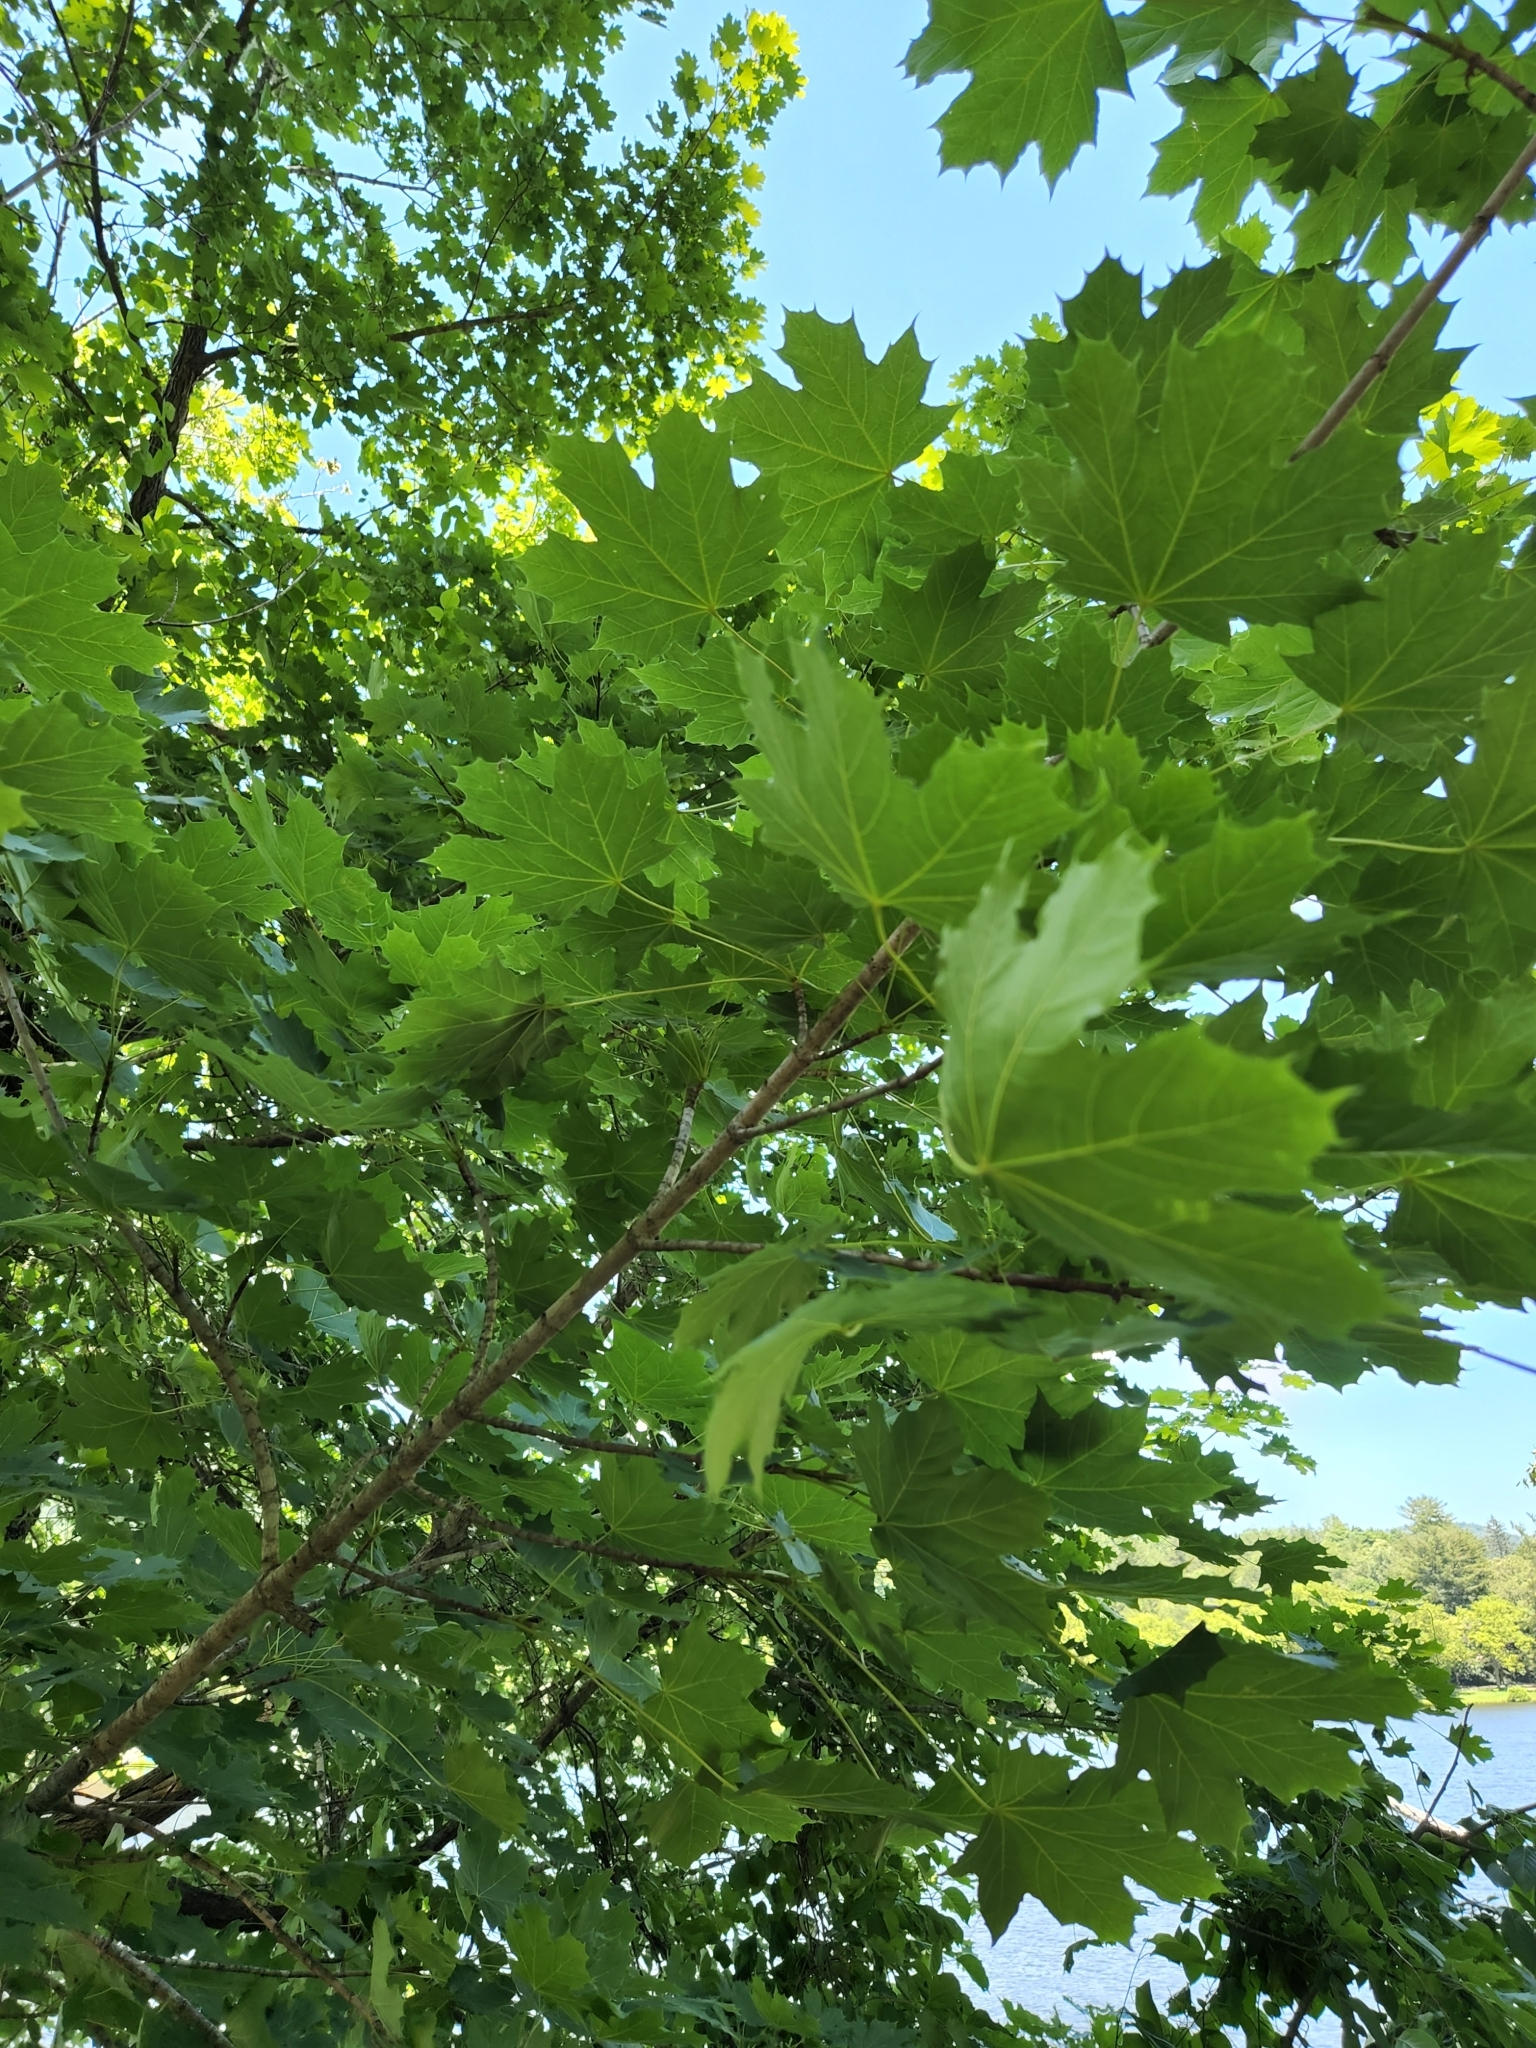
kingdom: Plantae
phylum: Tracheophyta
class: Magnoliopsida
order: Sapindales
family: Sapindaceae
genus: Acer
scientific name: Acer saccharum
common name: Sugar maple
